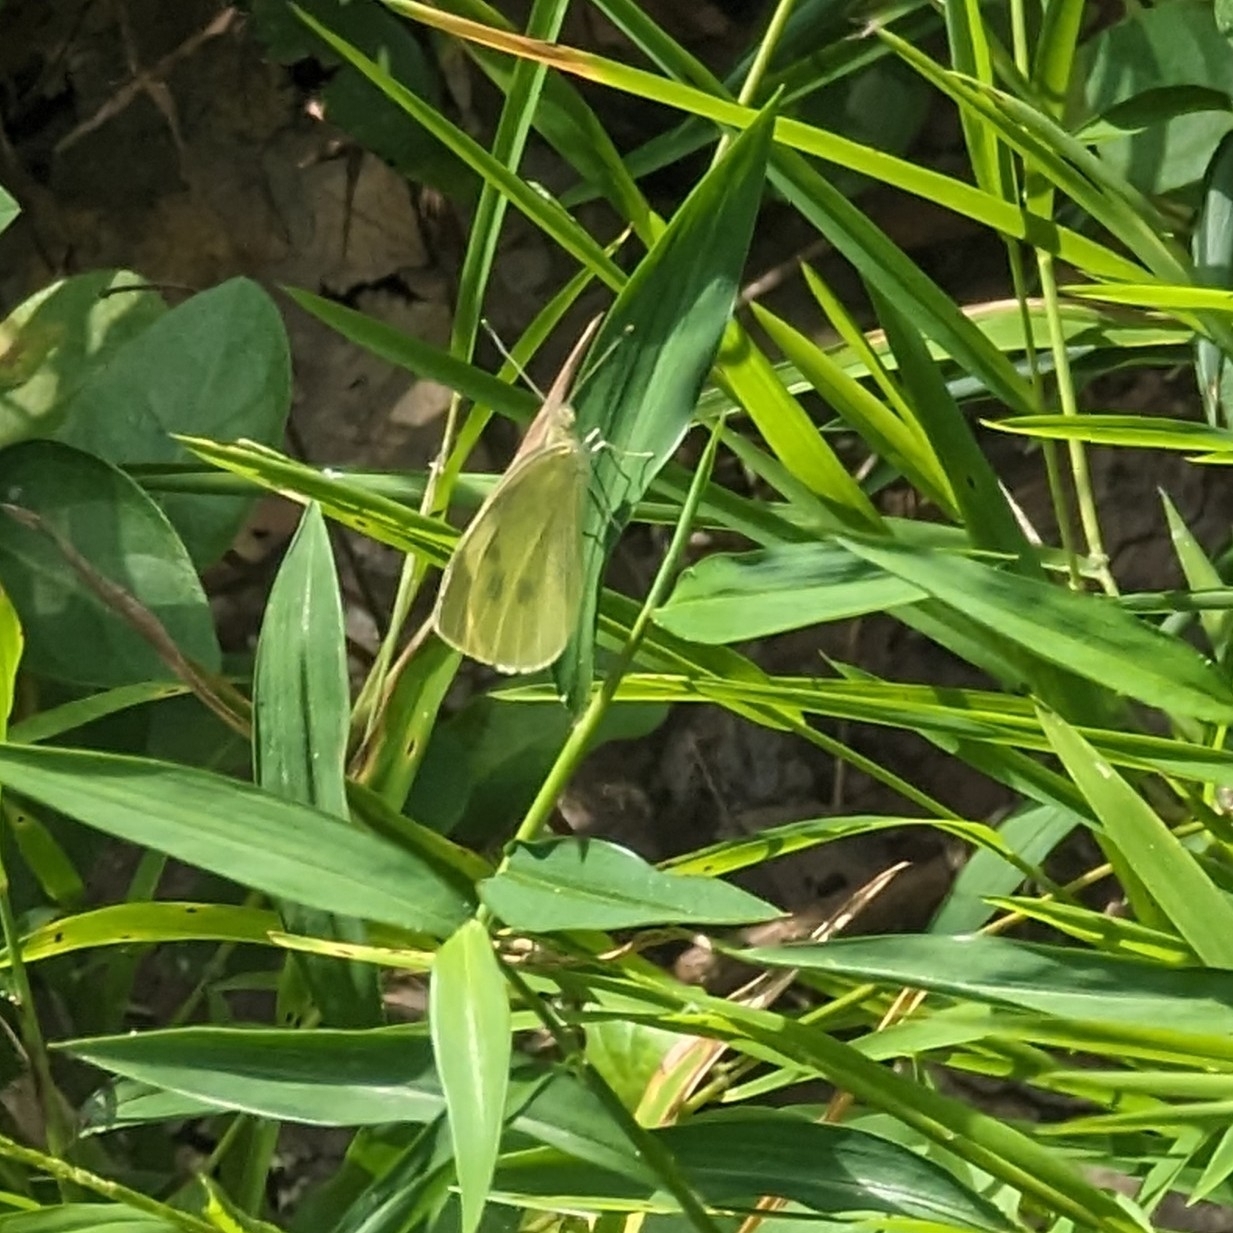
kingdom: Animalia
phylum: Arthropoda
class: Insecta
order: Lepidoptera
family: Pieridae
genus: Pieris
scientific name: Pieris rapae
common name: Small white
